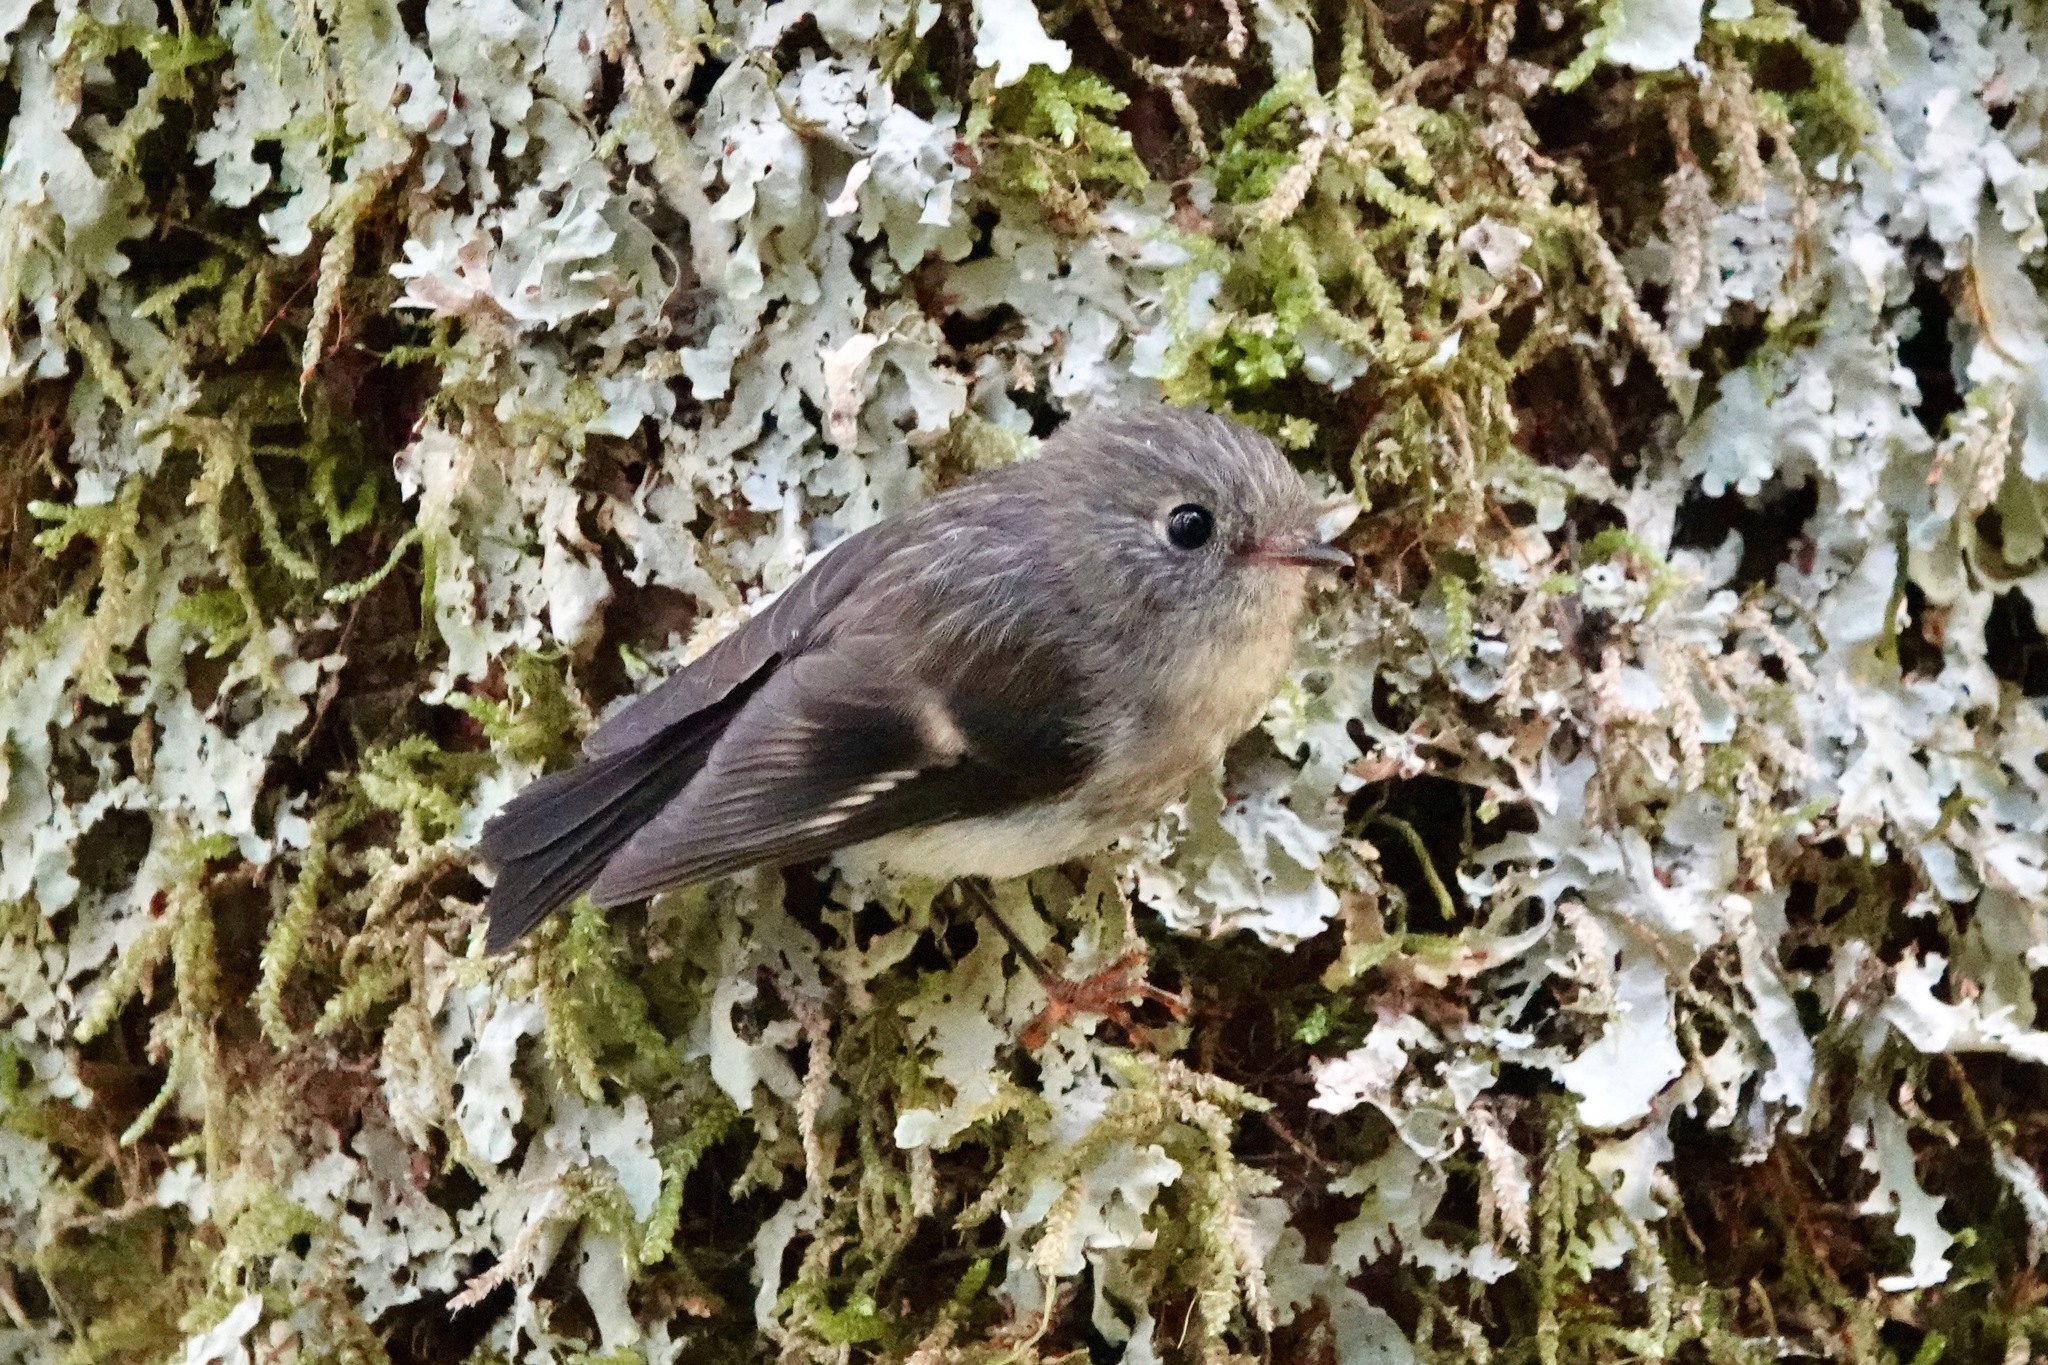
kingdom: Animalia
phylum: Chordata
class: Aves
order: Passeriformes
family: Petroicidae
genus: Petroica
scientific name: Petroica macrocephala
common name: Tomtit
